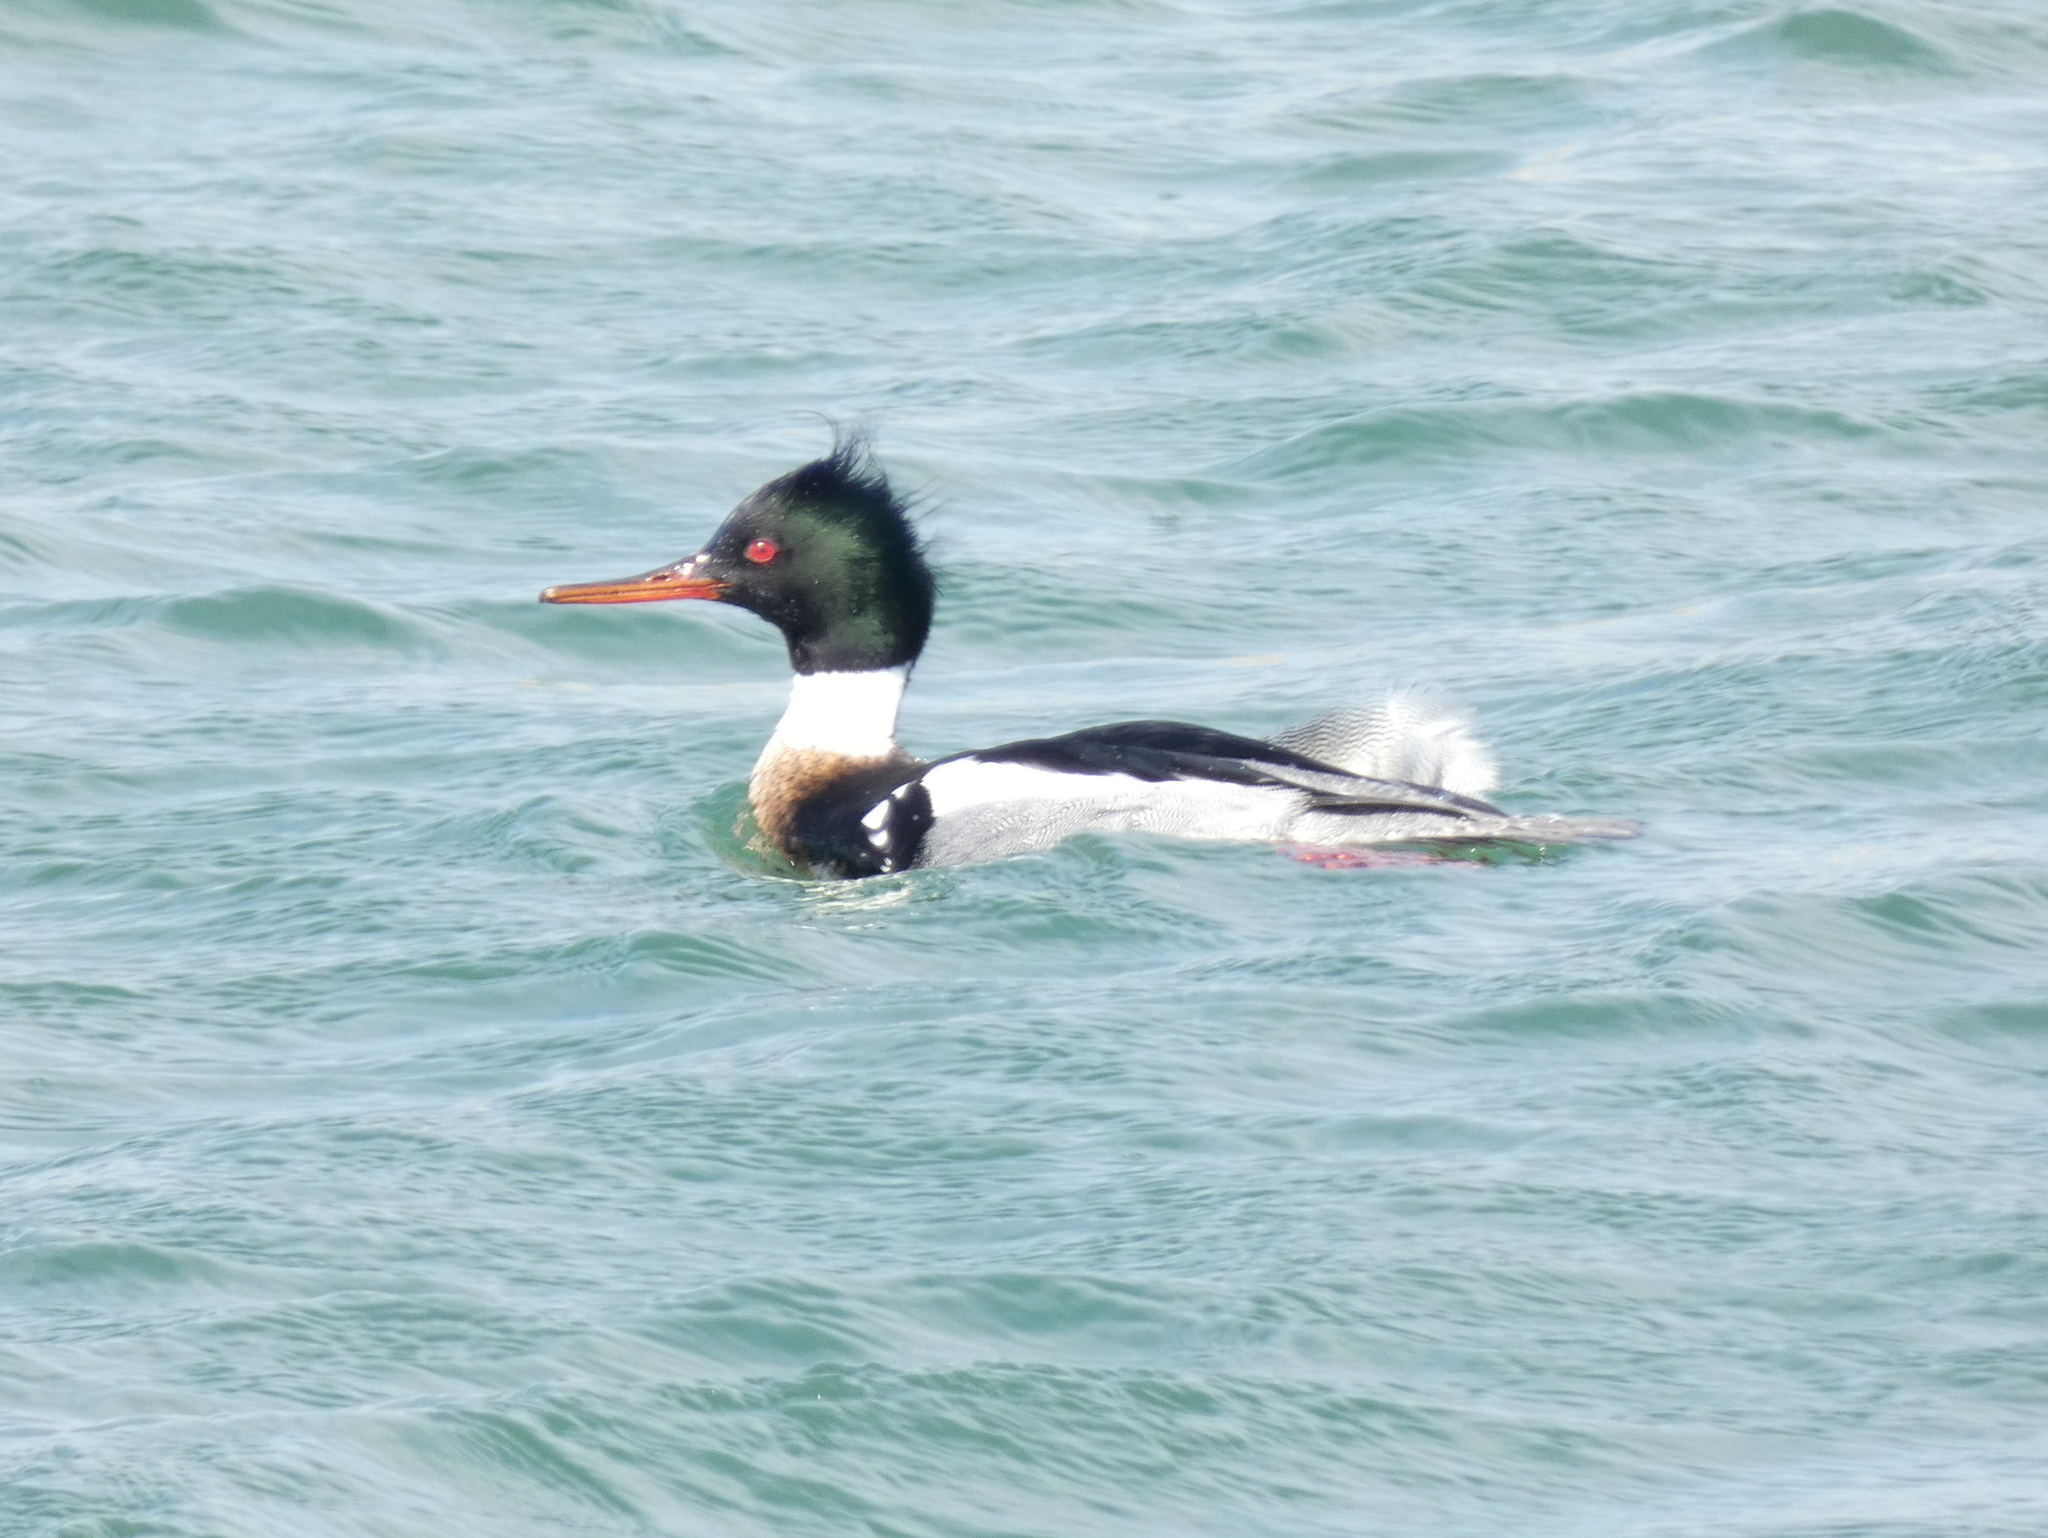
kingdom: Animalia
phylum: Chordata
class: Aves
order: Anseriformes
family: Anatidae
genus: Mergus
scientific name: Mergus serrator
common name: Red-breasted merganser
